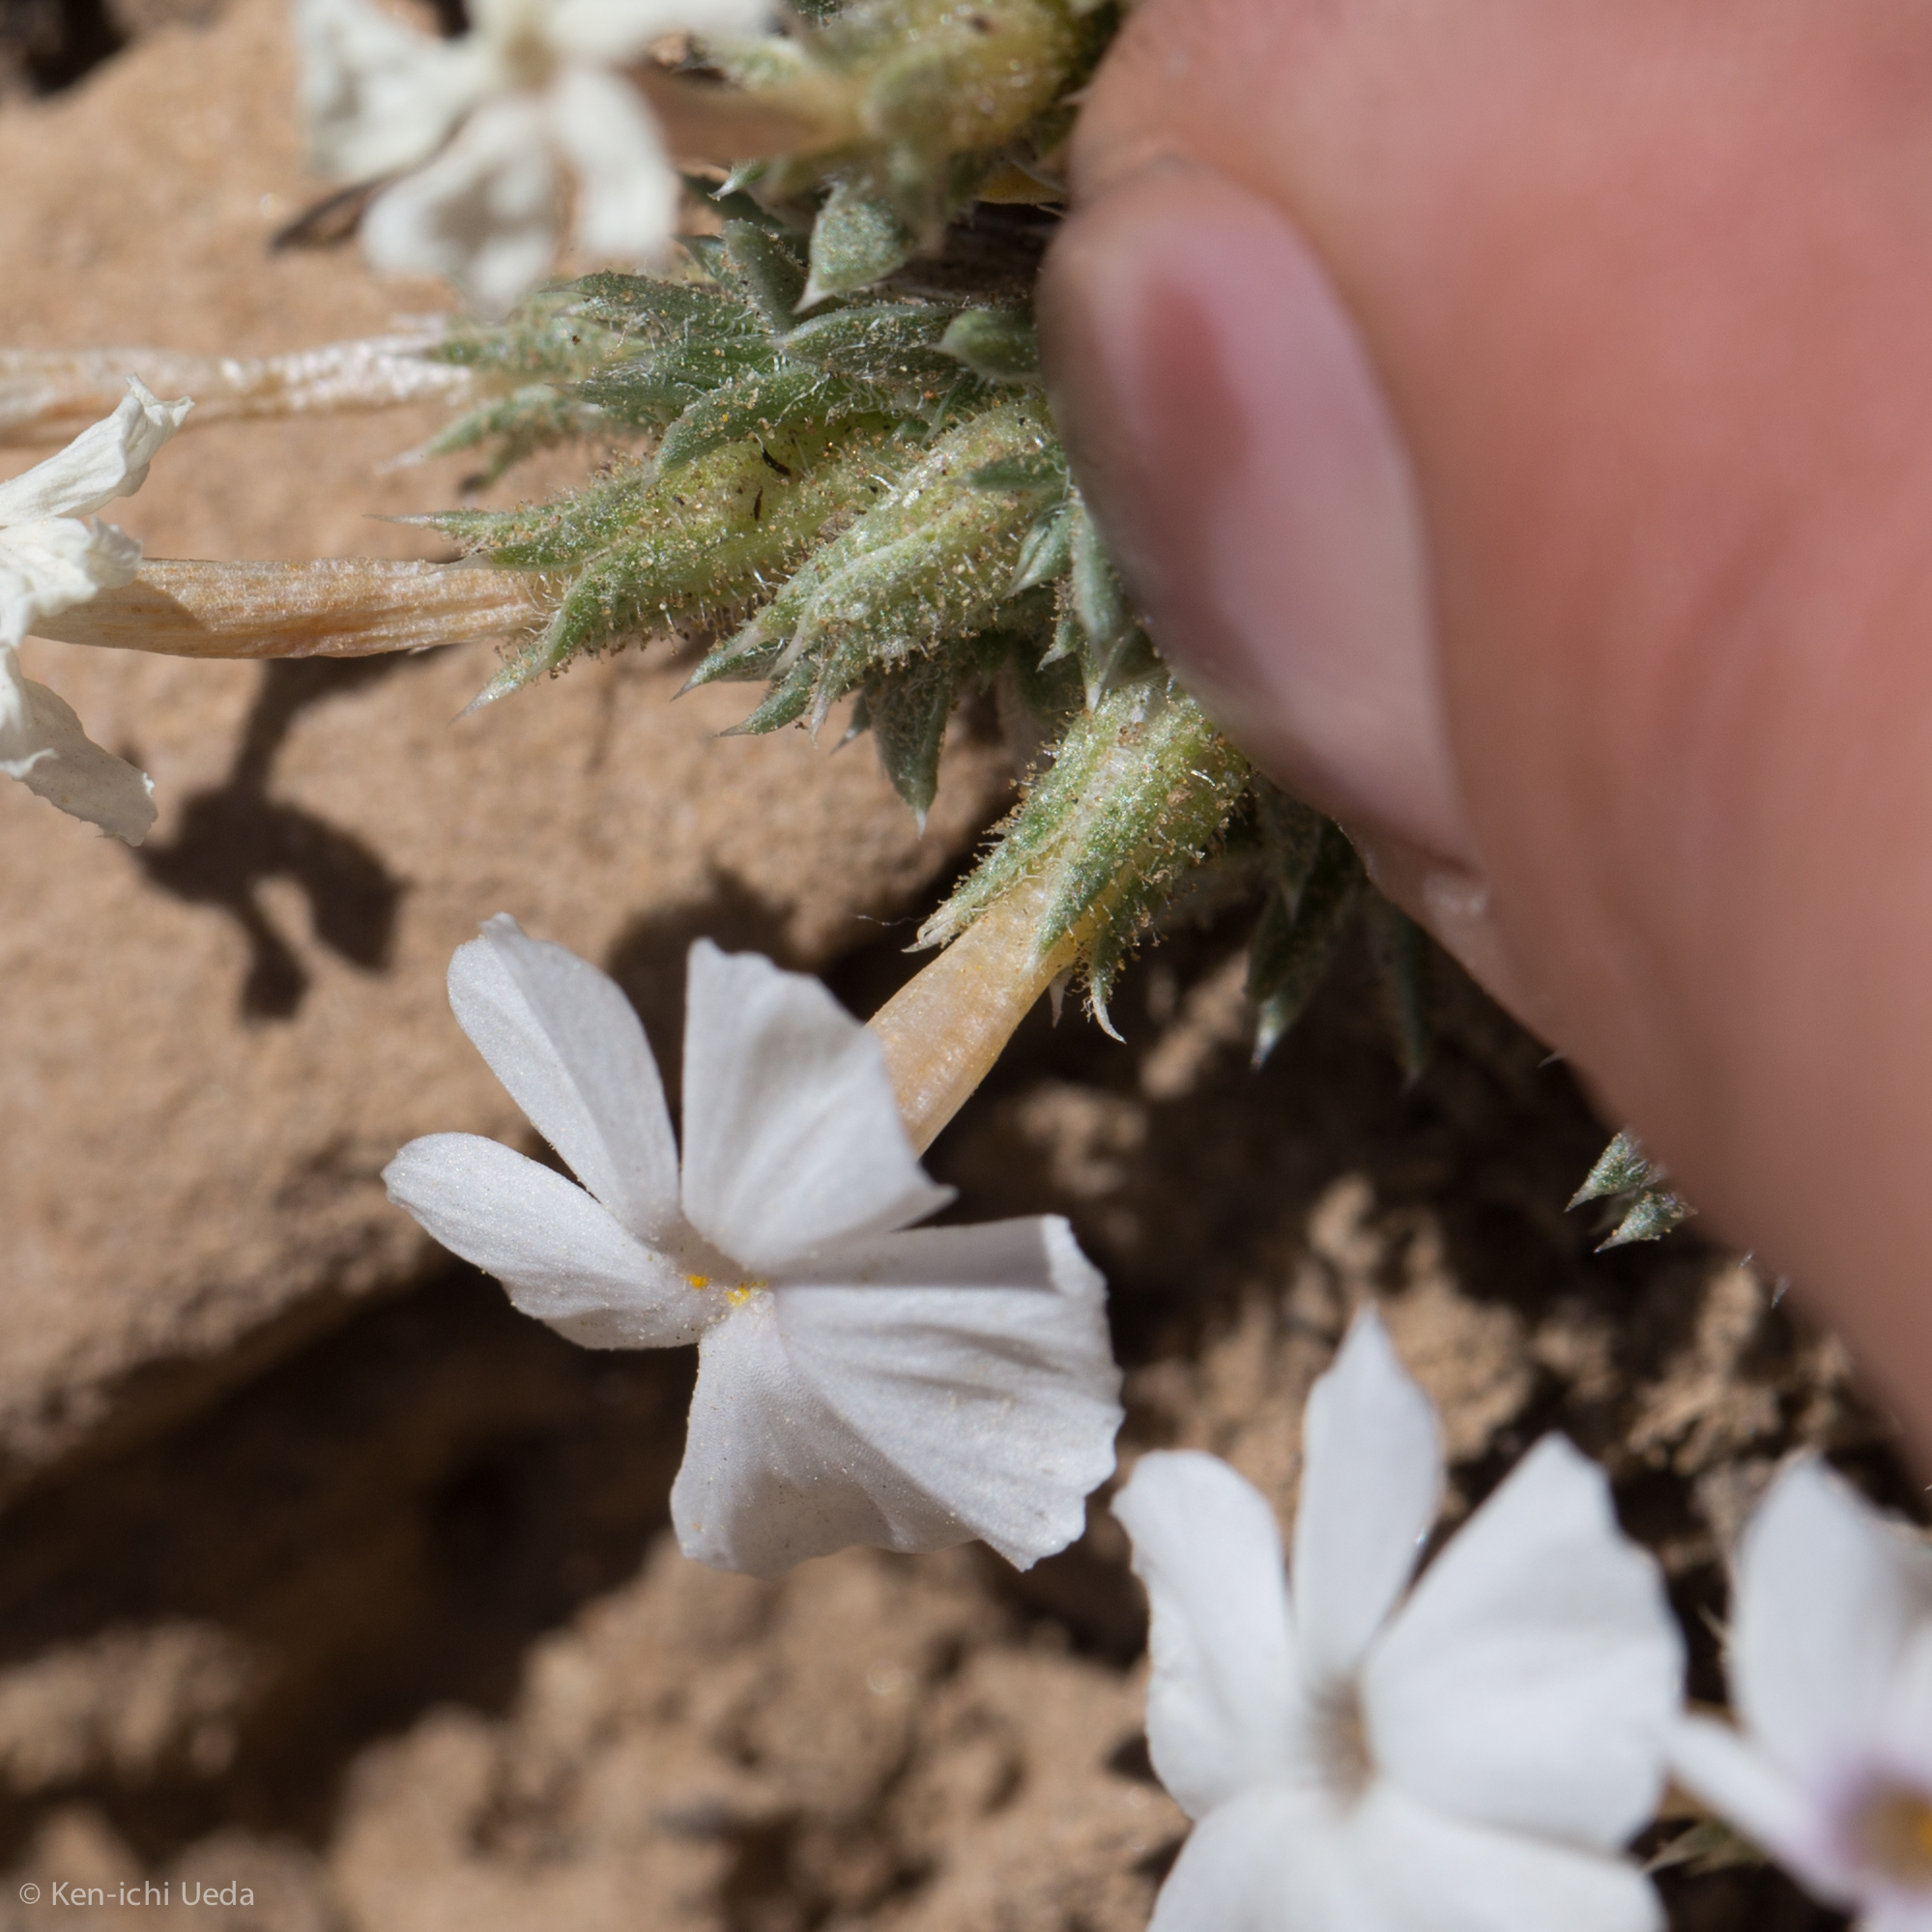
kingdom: Plantae
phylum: Tracheophyta
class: Magnoliopsida
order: Ericales
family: Polemoniaceae
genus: Phlox
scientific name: Phlox condensata
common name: Compact phlox
